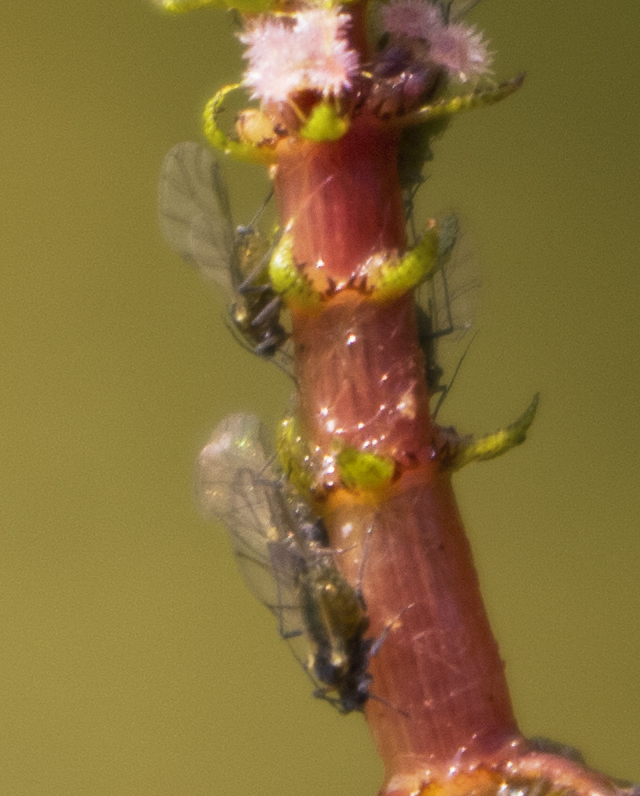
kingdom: Animalia
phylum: Arthropoda
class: Insecta
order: Hemiptera
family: Aphididae
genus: Rhopalosiphum
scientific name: Rhopalosiphum nymphaeae
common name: Water lily aphid
